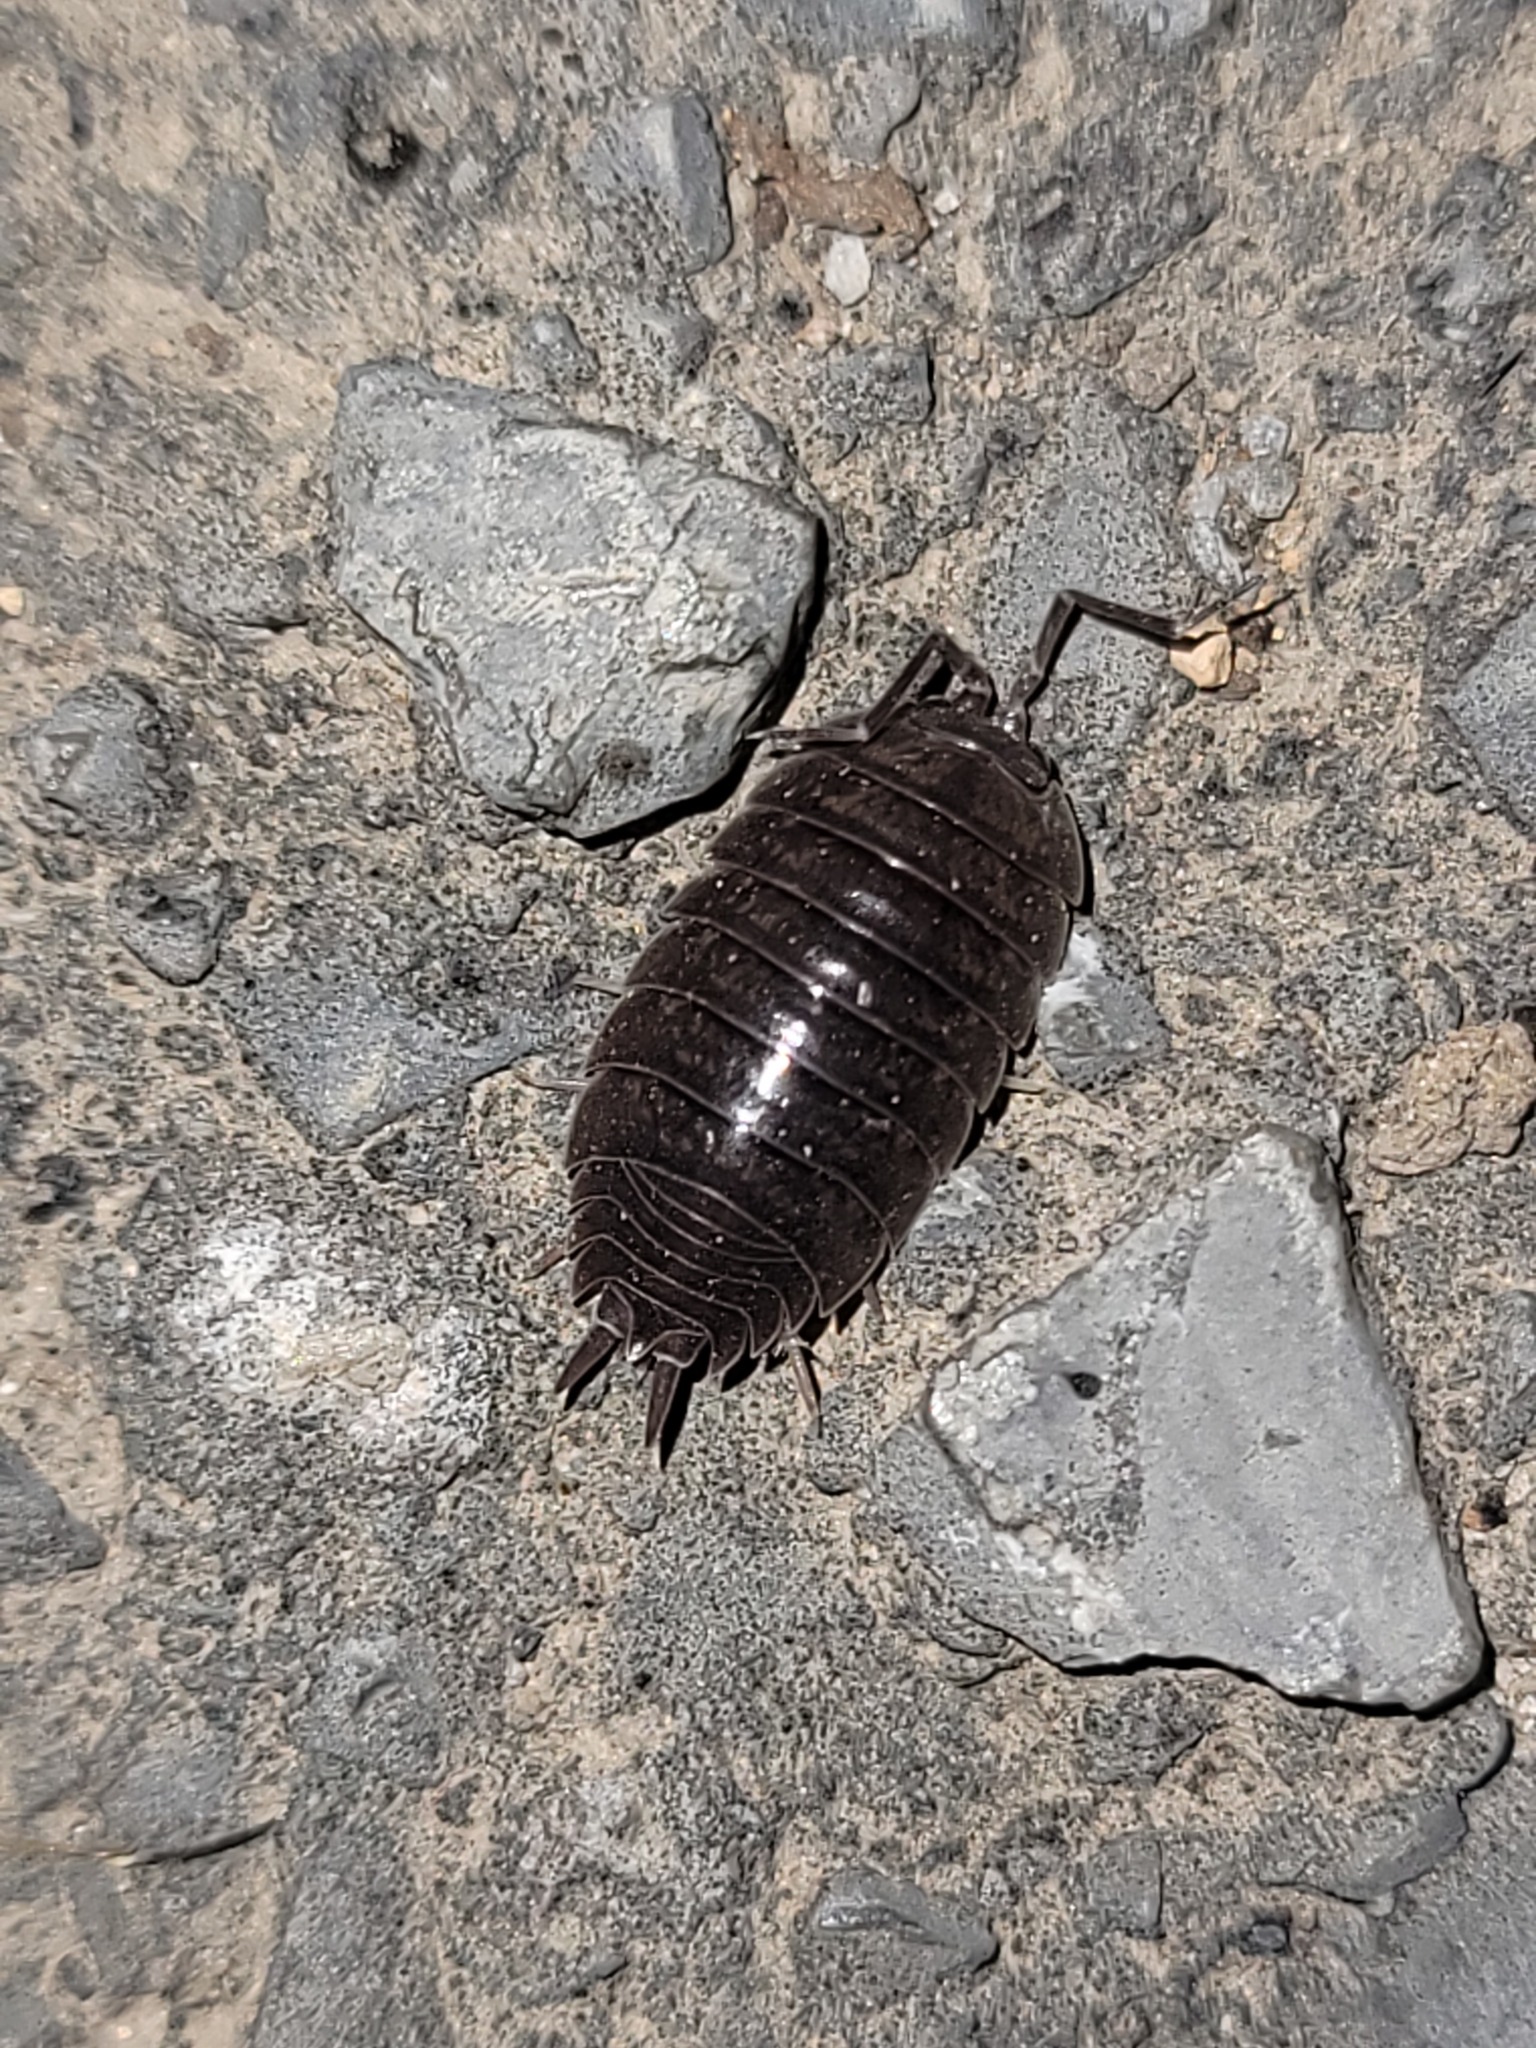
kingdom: Animalia
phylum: Arthropoda
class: Malacostraca
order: Isopoda
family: Porcellionidae
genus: Porcellio
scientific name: Porcellio laevis
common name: Swift woodlouse
